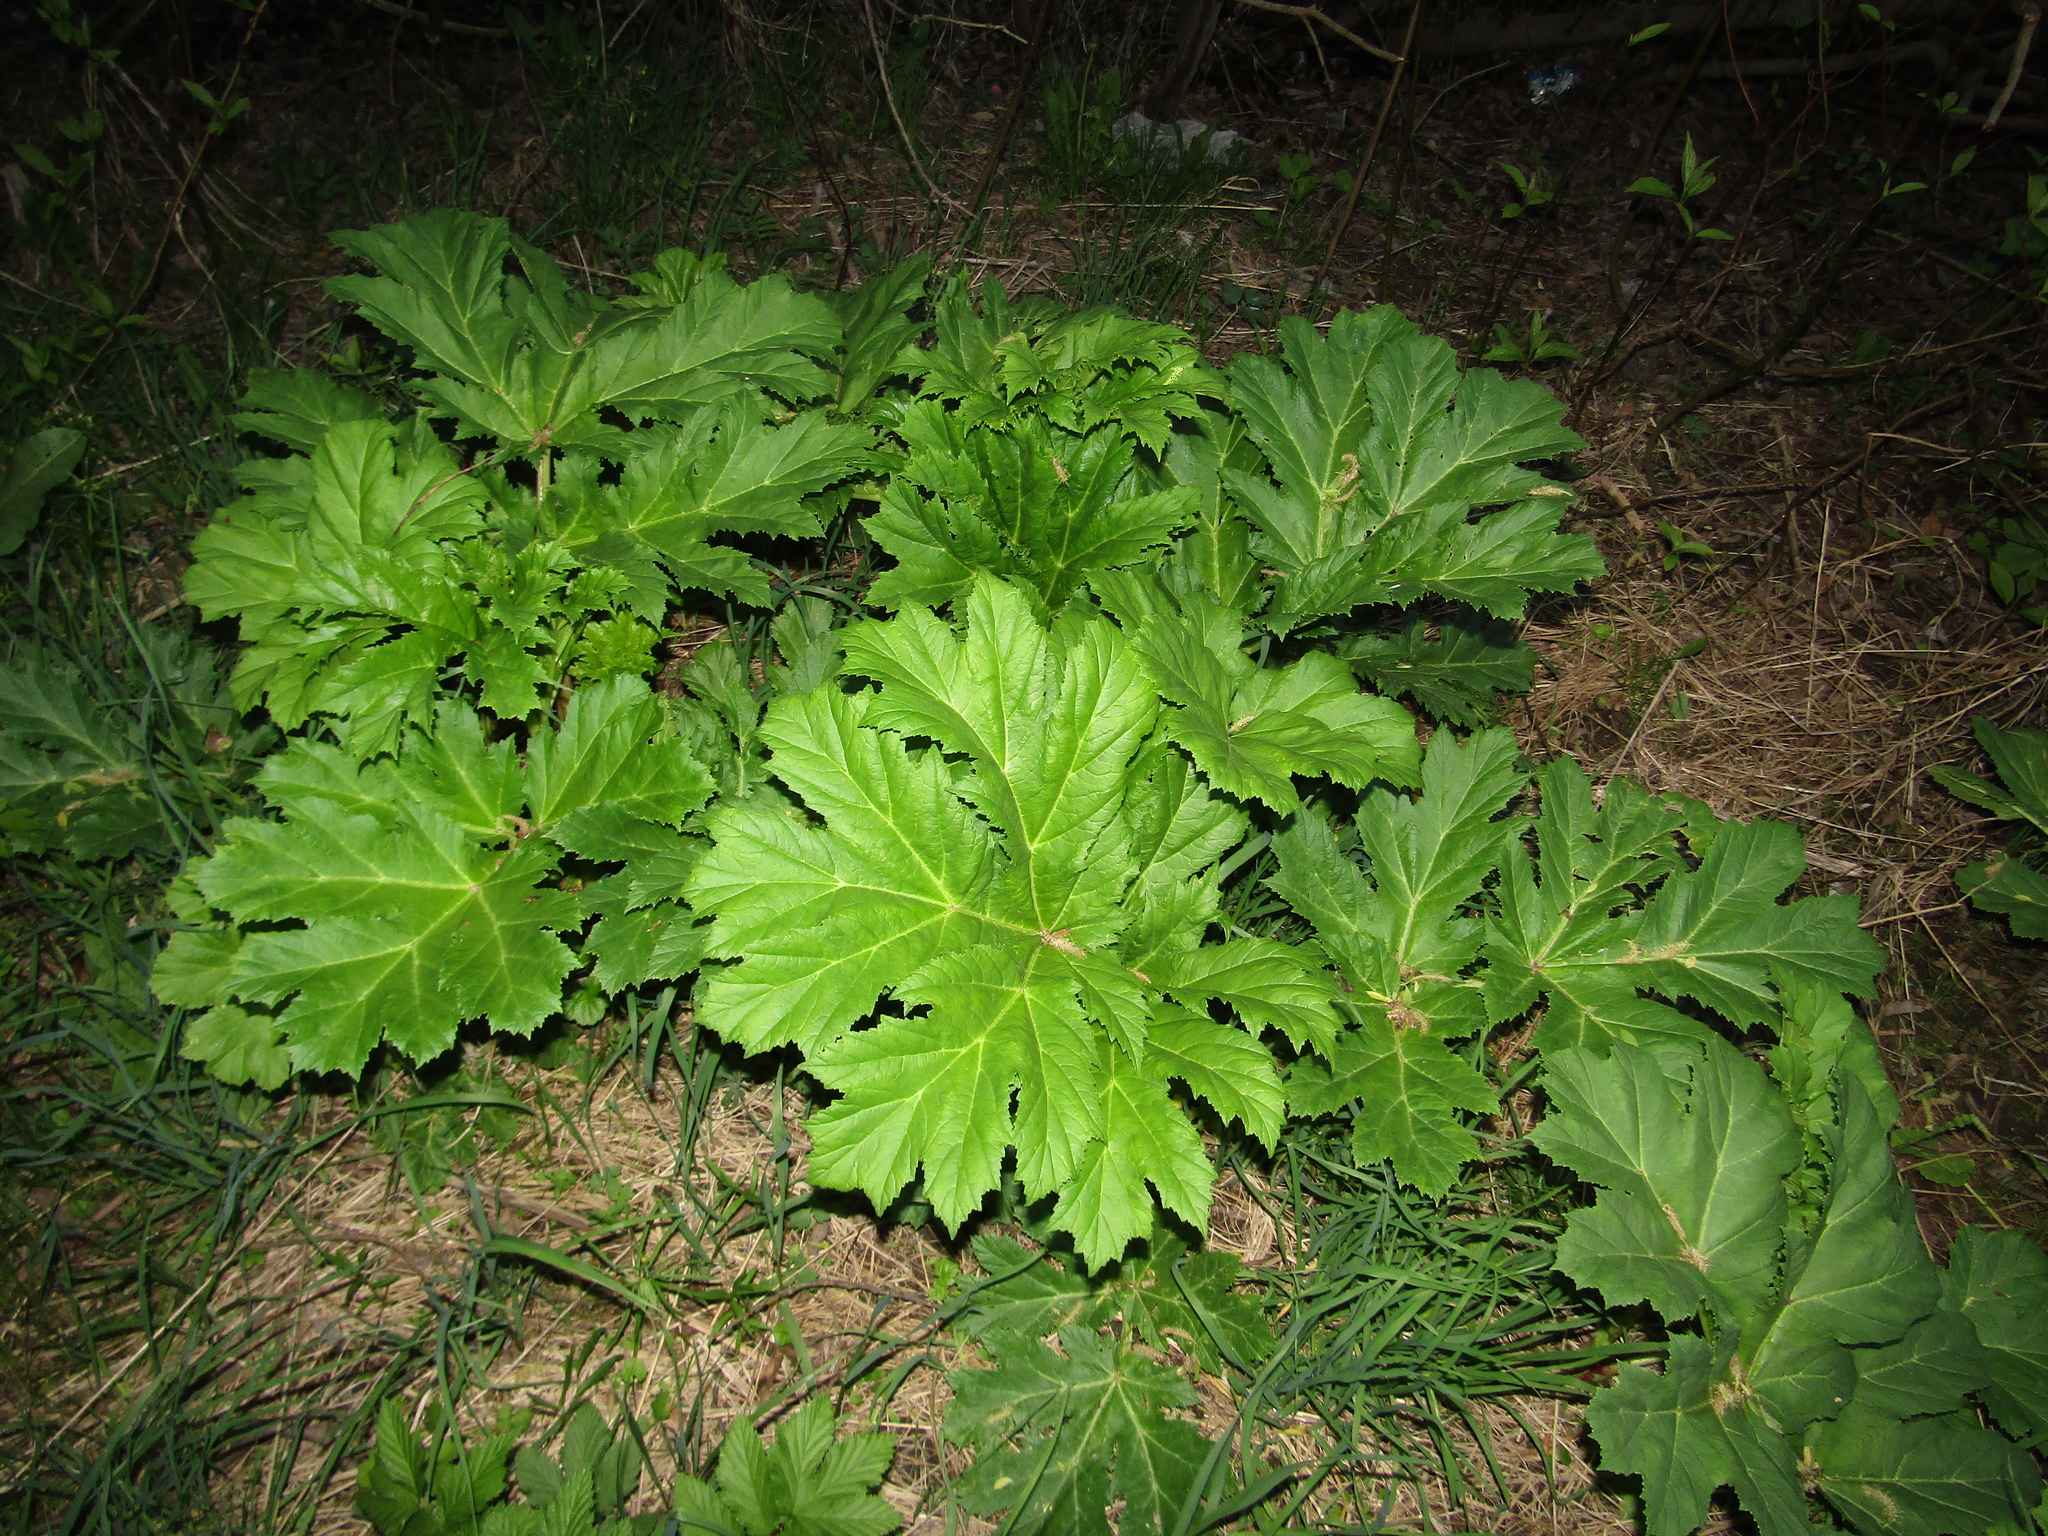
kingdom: Plantae
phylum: Tracheophyta
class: Magnoliopsida
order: Apiales
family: Apiaceae
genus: Heracleum
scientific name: Heracleum sosnowskyi
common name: Sosnowsky's hogweed
